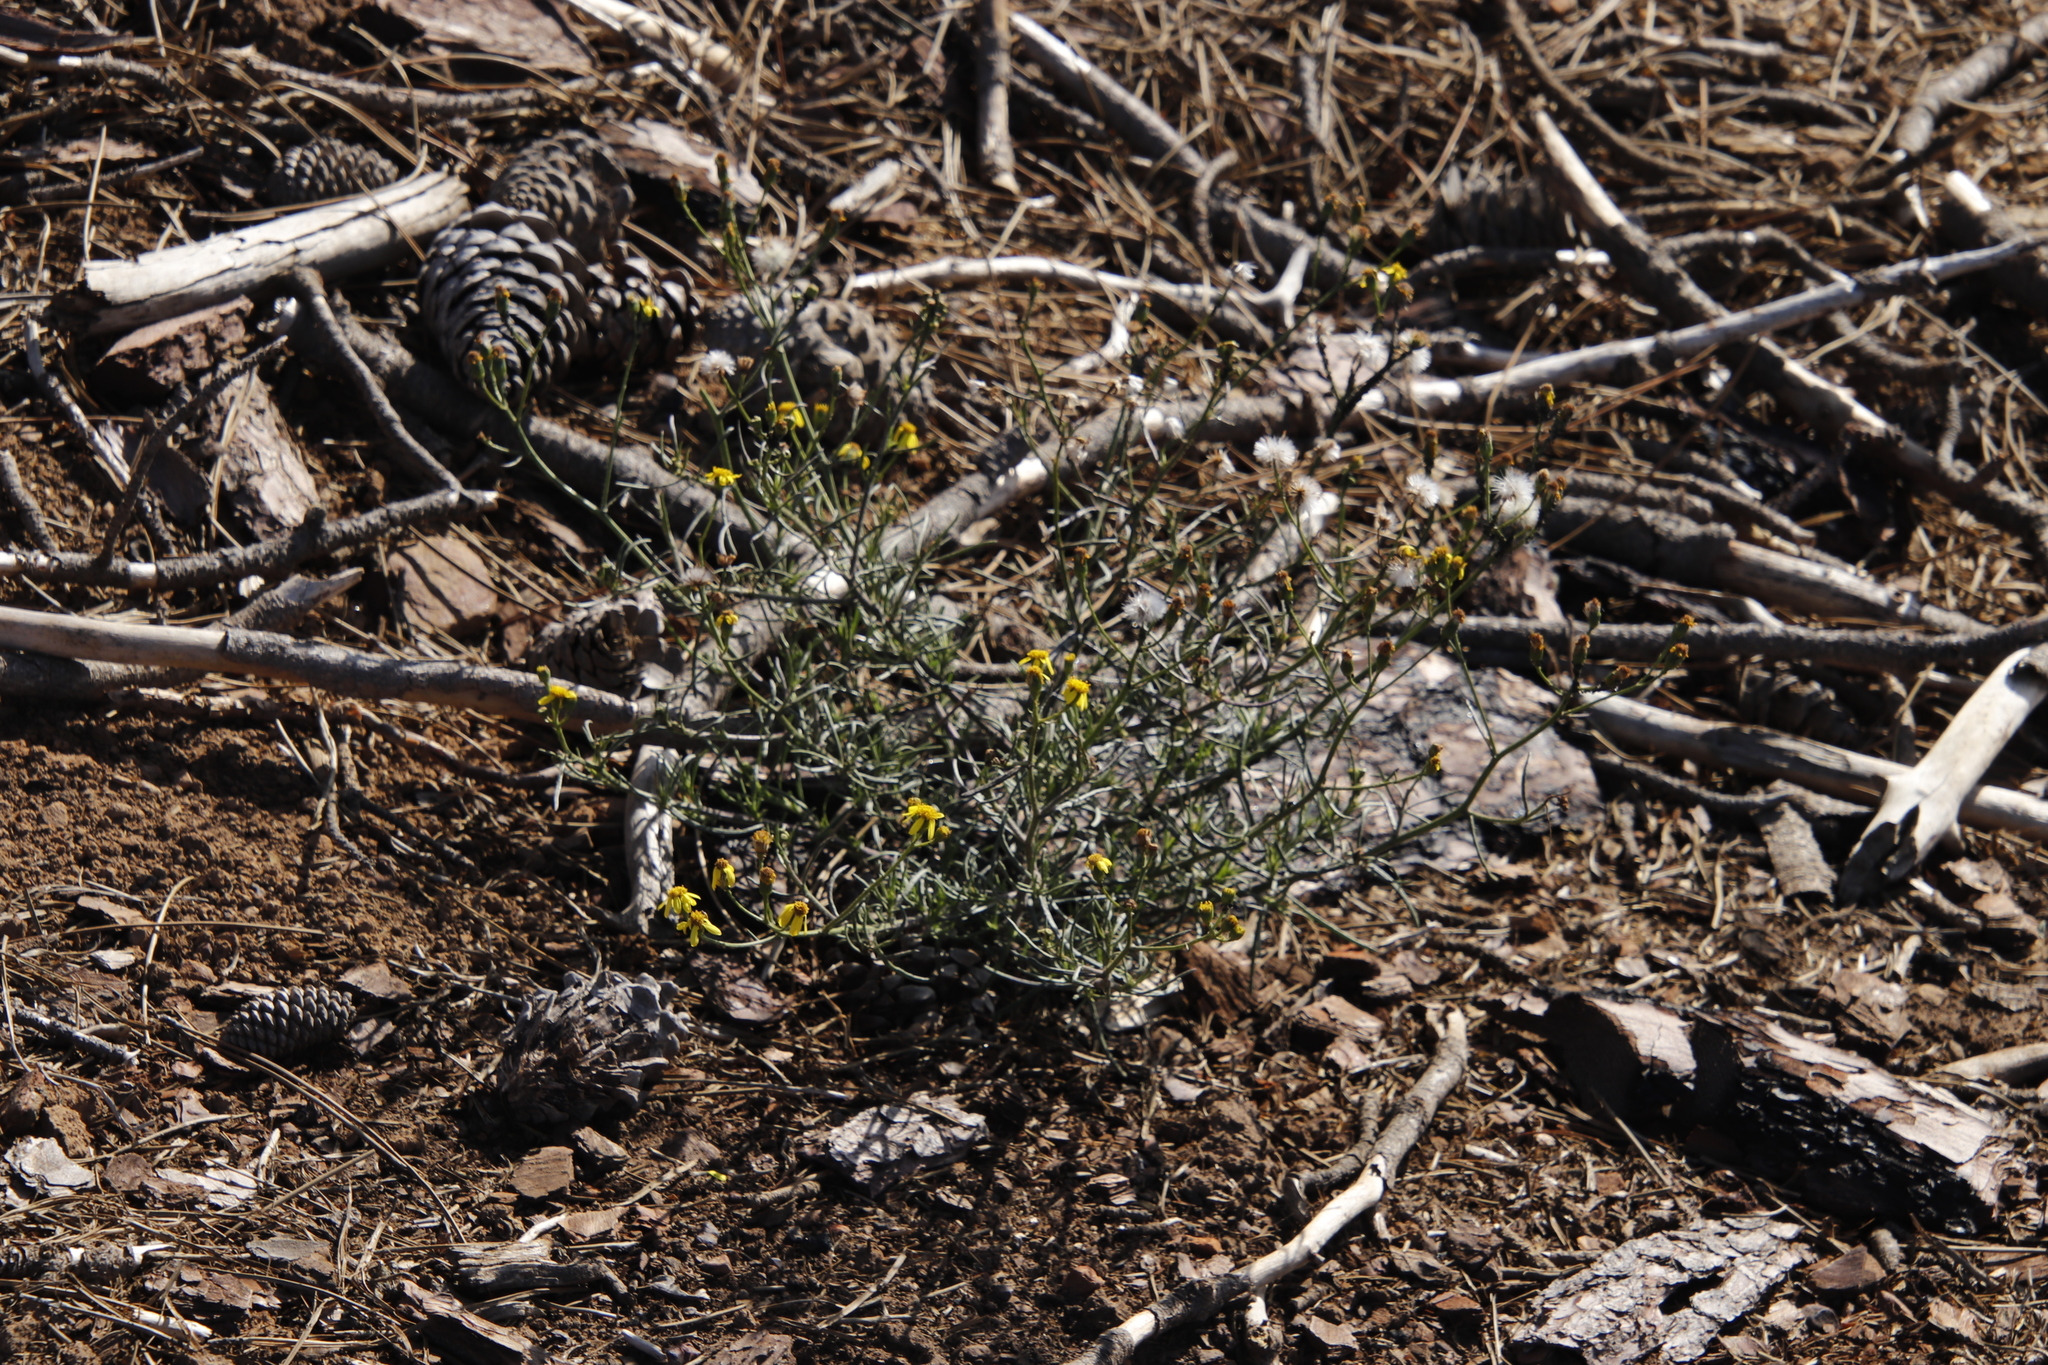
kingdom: Plantae
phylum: Tracheophyta
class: Magnoliopsida
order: Asterales
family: Asteraceae
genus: Senecio
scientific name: Senecio burchellii
